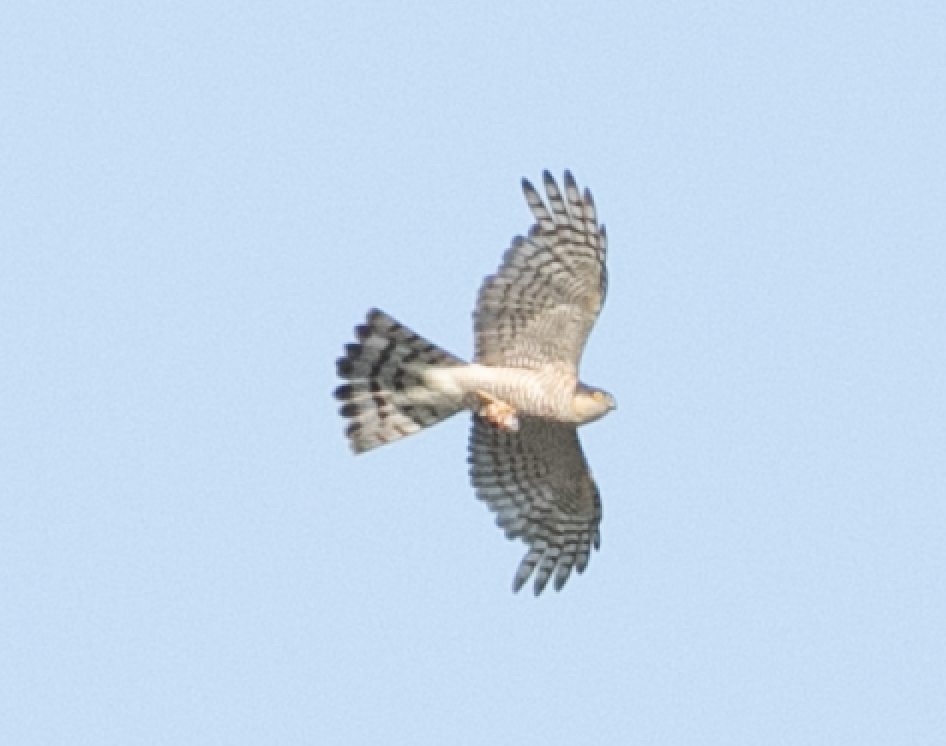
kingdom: Animalia
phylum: Chordata
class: Aves
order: Accipitriformes
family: Accipitridae
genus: Accipiter
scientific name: Accipiter nisus
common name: Eurasian sparrowhawk
